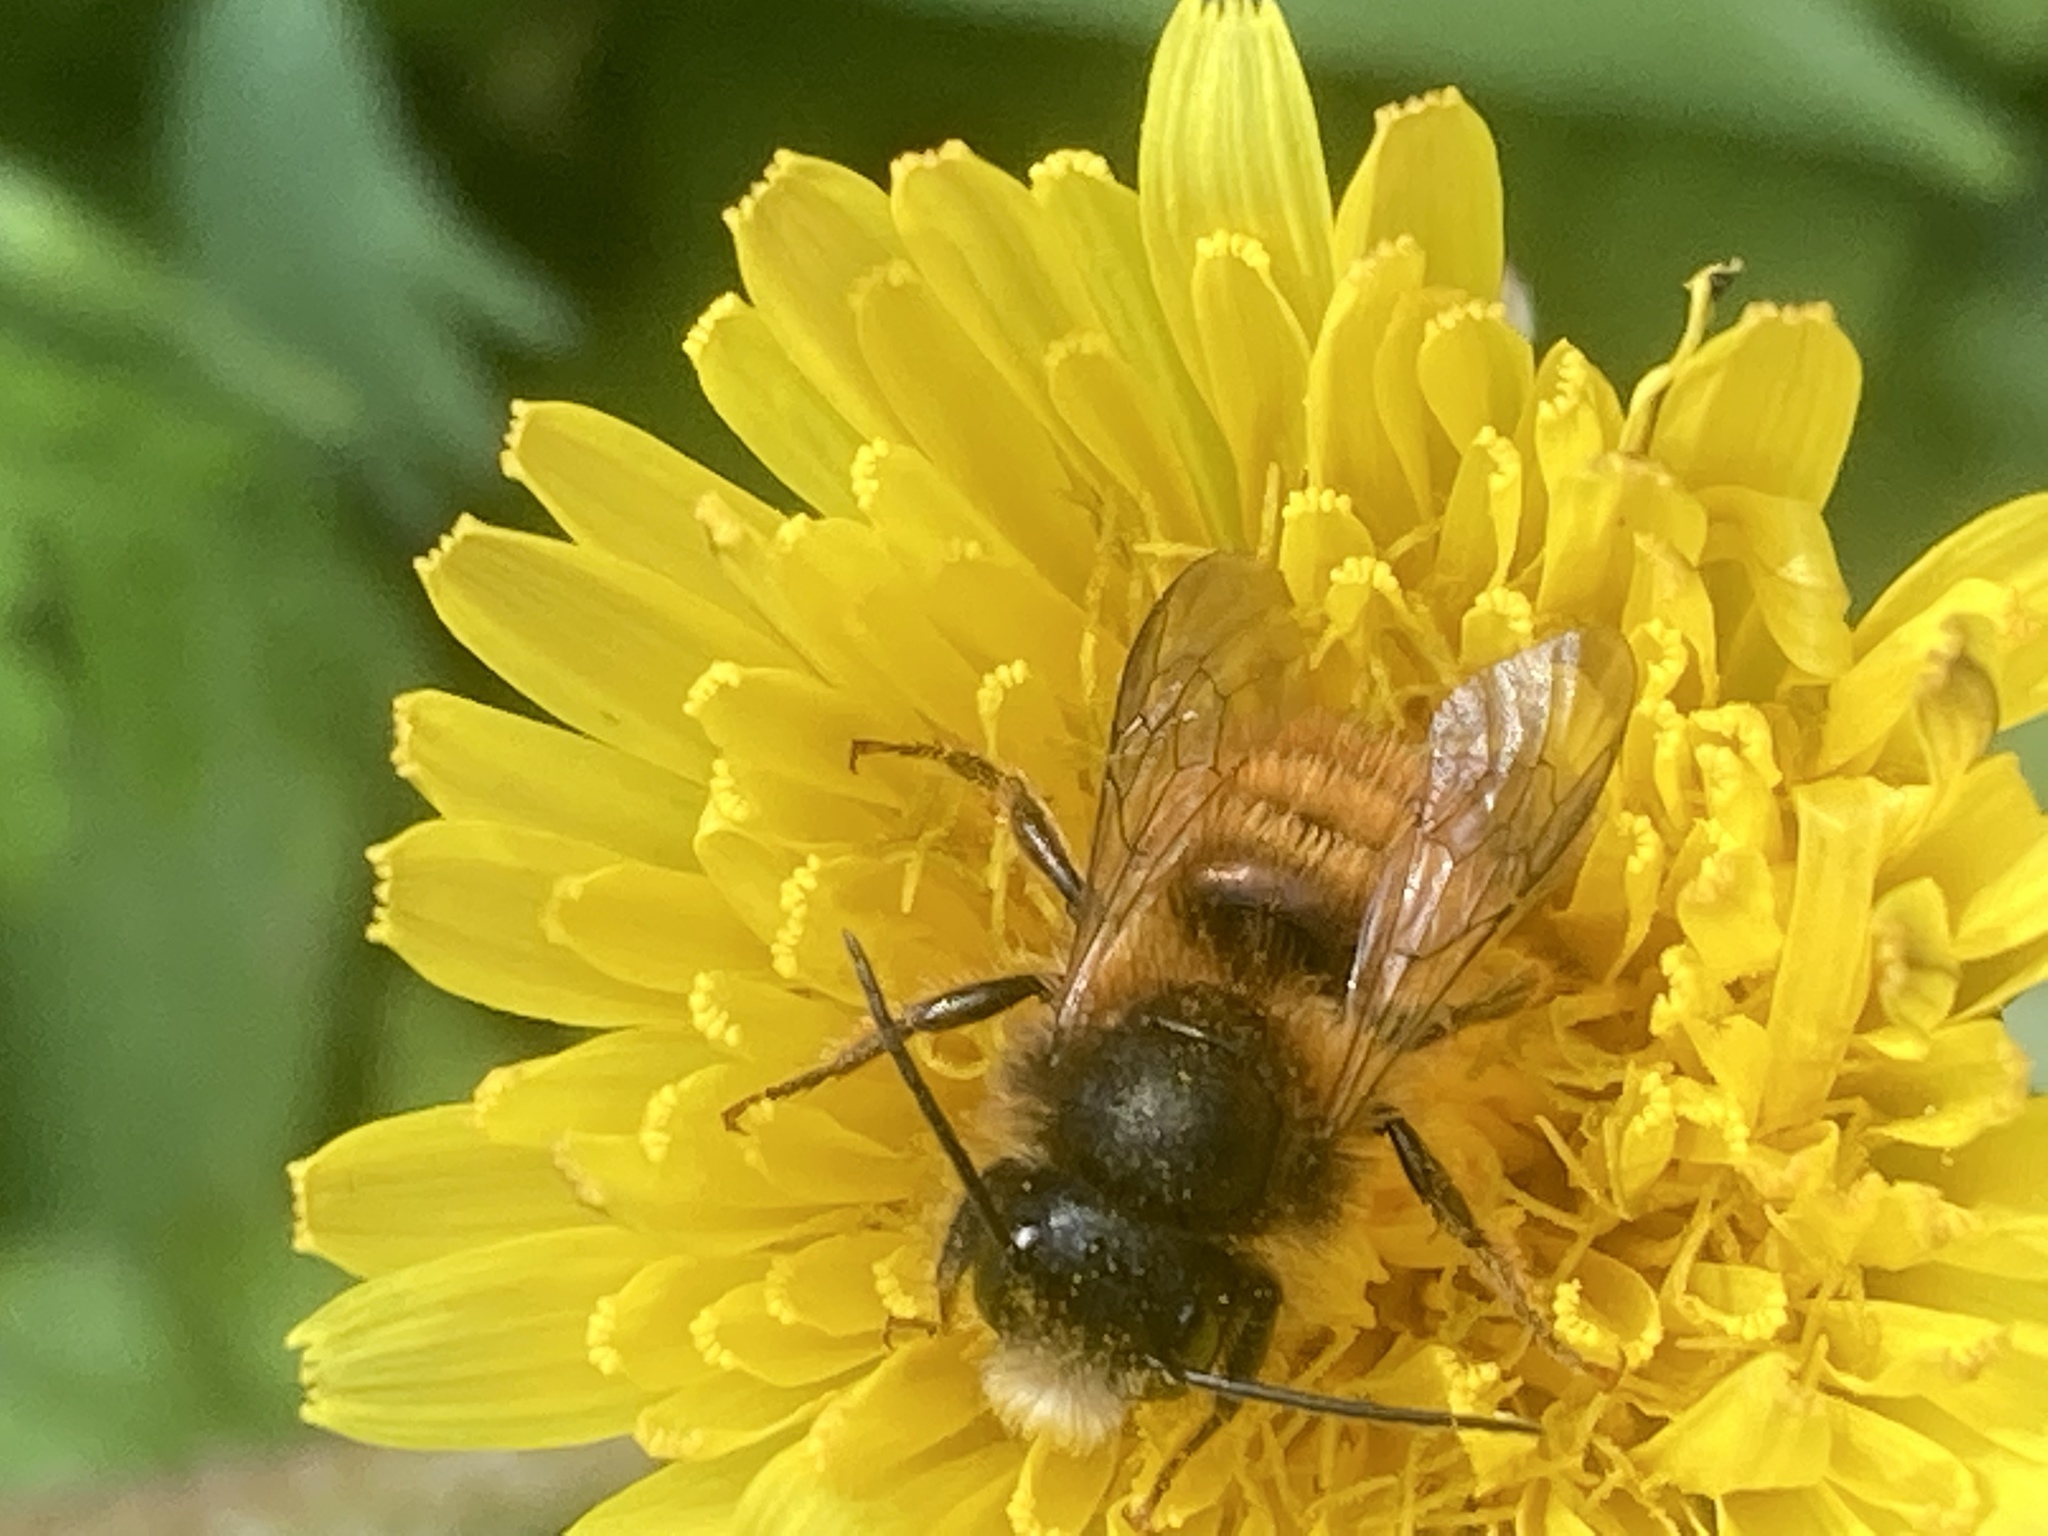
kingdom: Animalia
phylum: Arthropoda
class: Insecta
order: Hymenoptera
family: Megachilidae
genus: Osmia
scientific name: Osmia bicornis
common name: Red mason bee
